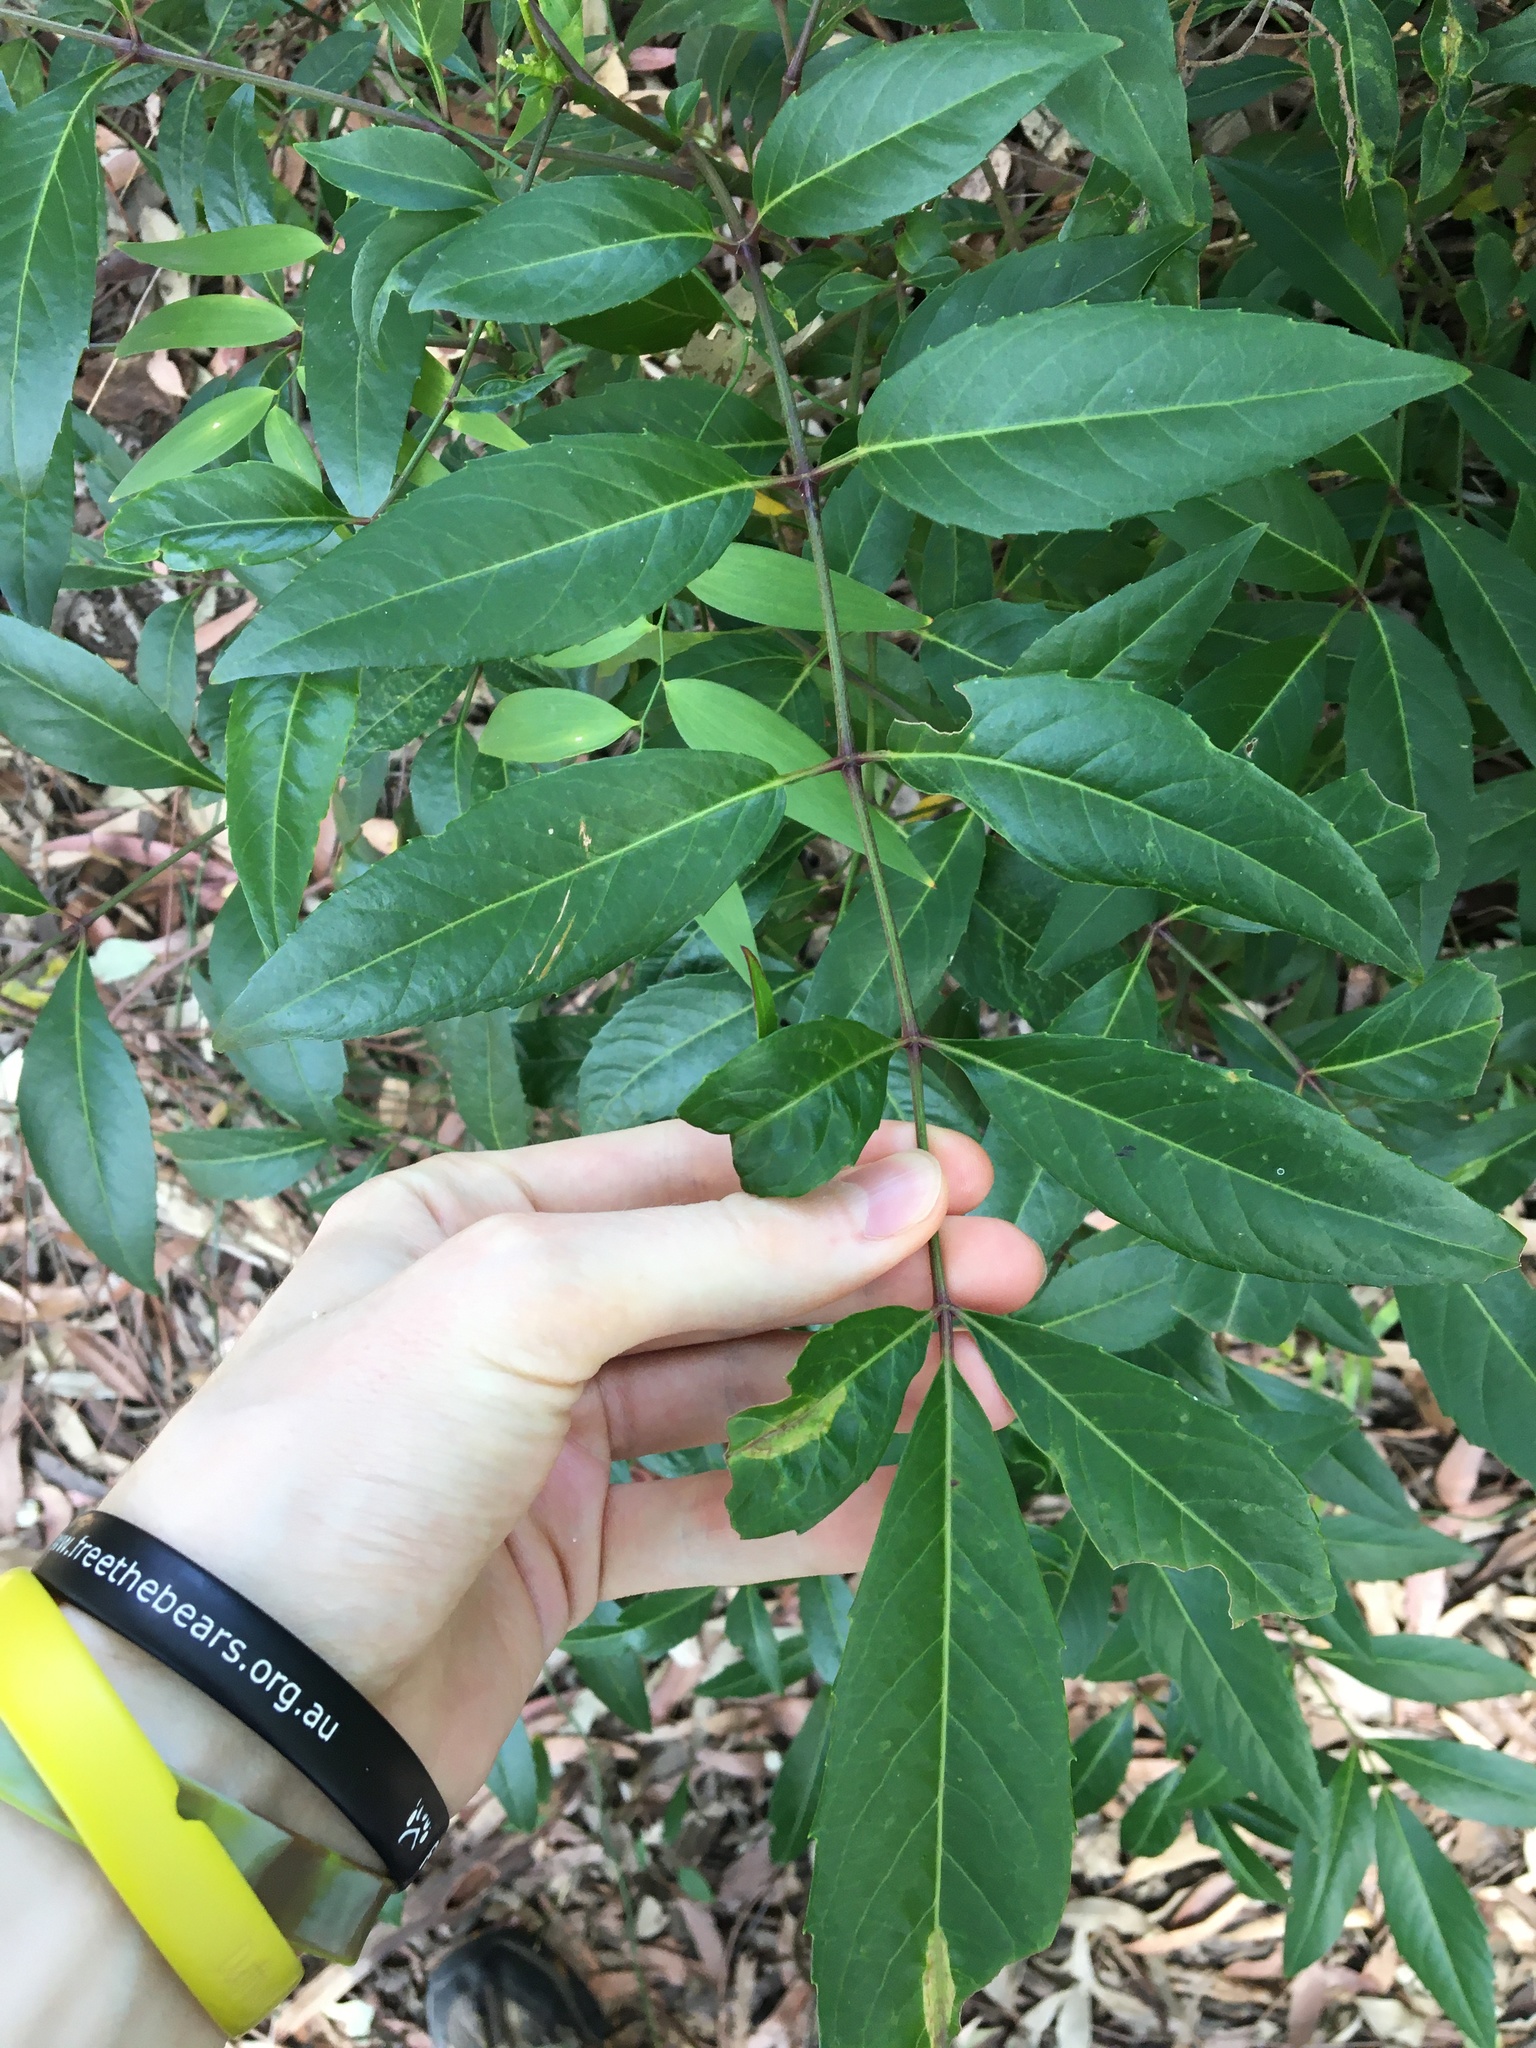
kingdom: Plantae
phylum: Tracheophyta
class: Magnoliopsida
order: Apiales
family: Araliaceae
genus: Polyscias
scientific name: Polyscias sambucifolia
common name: Elderberry-ash
